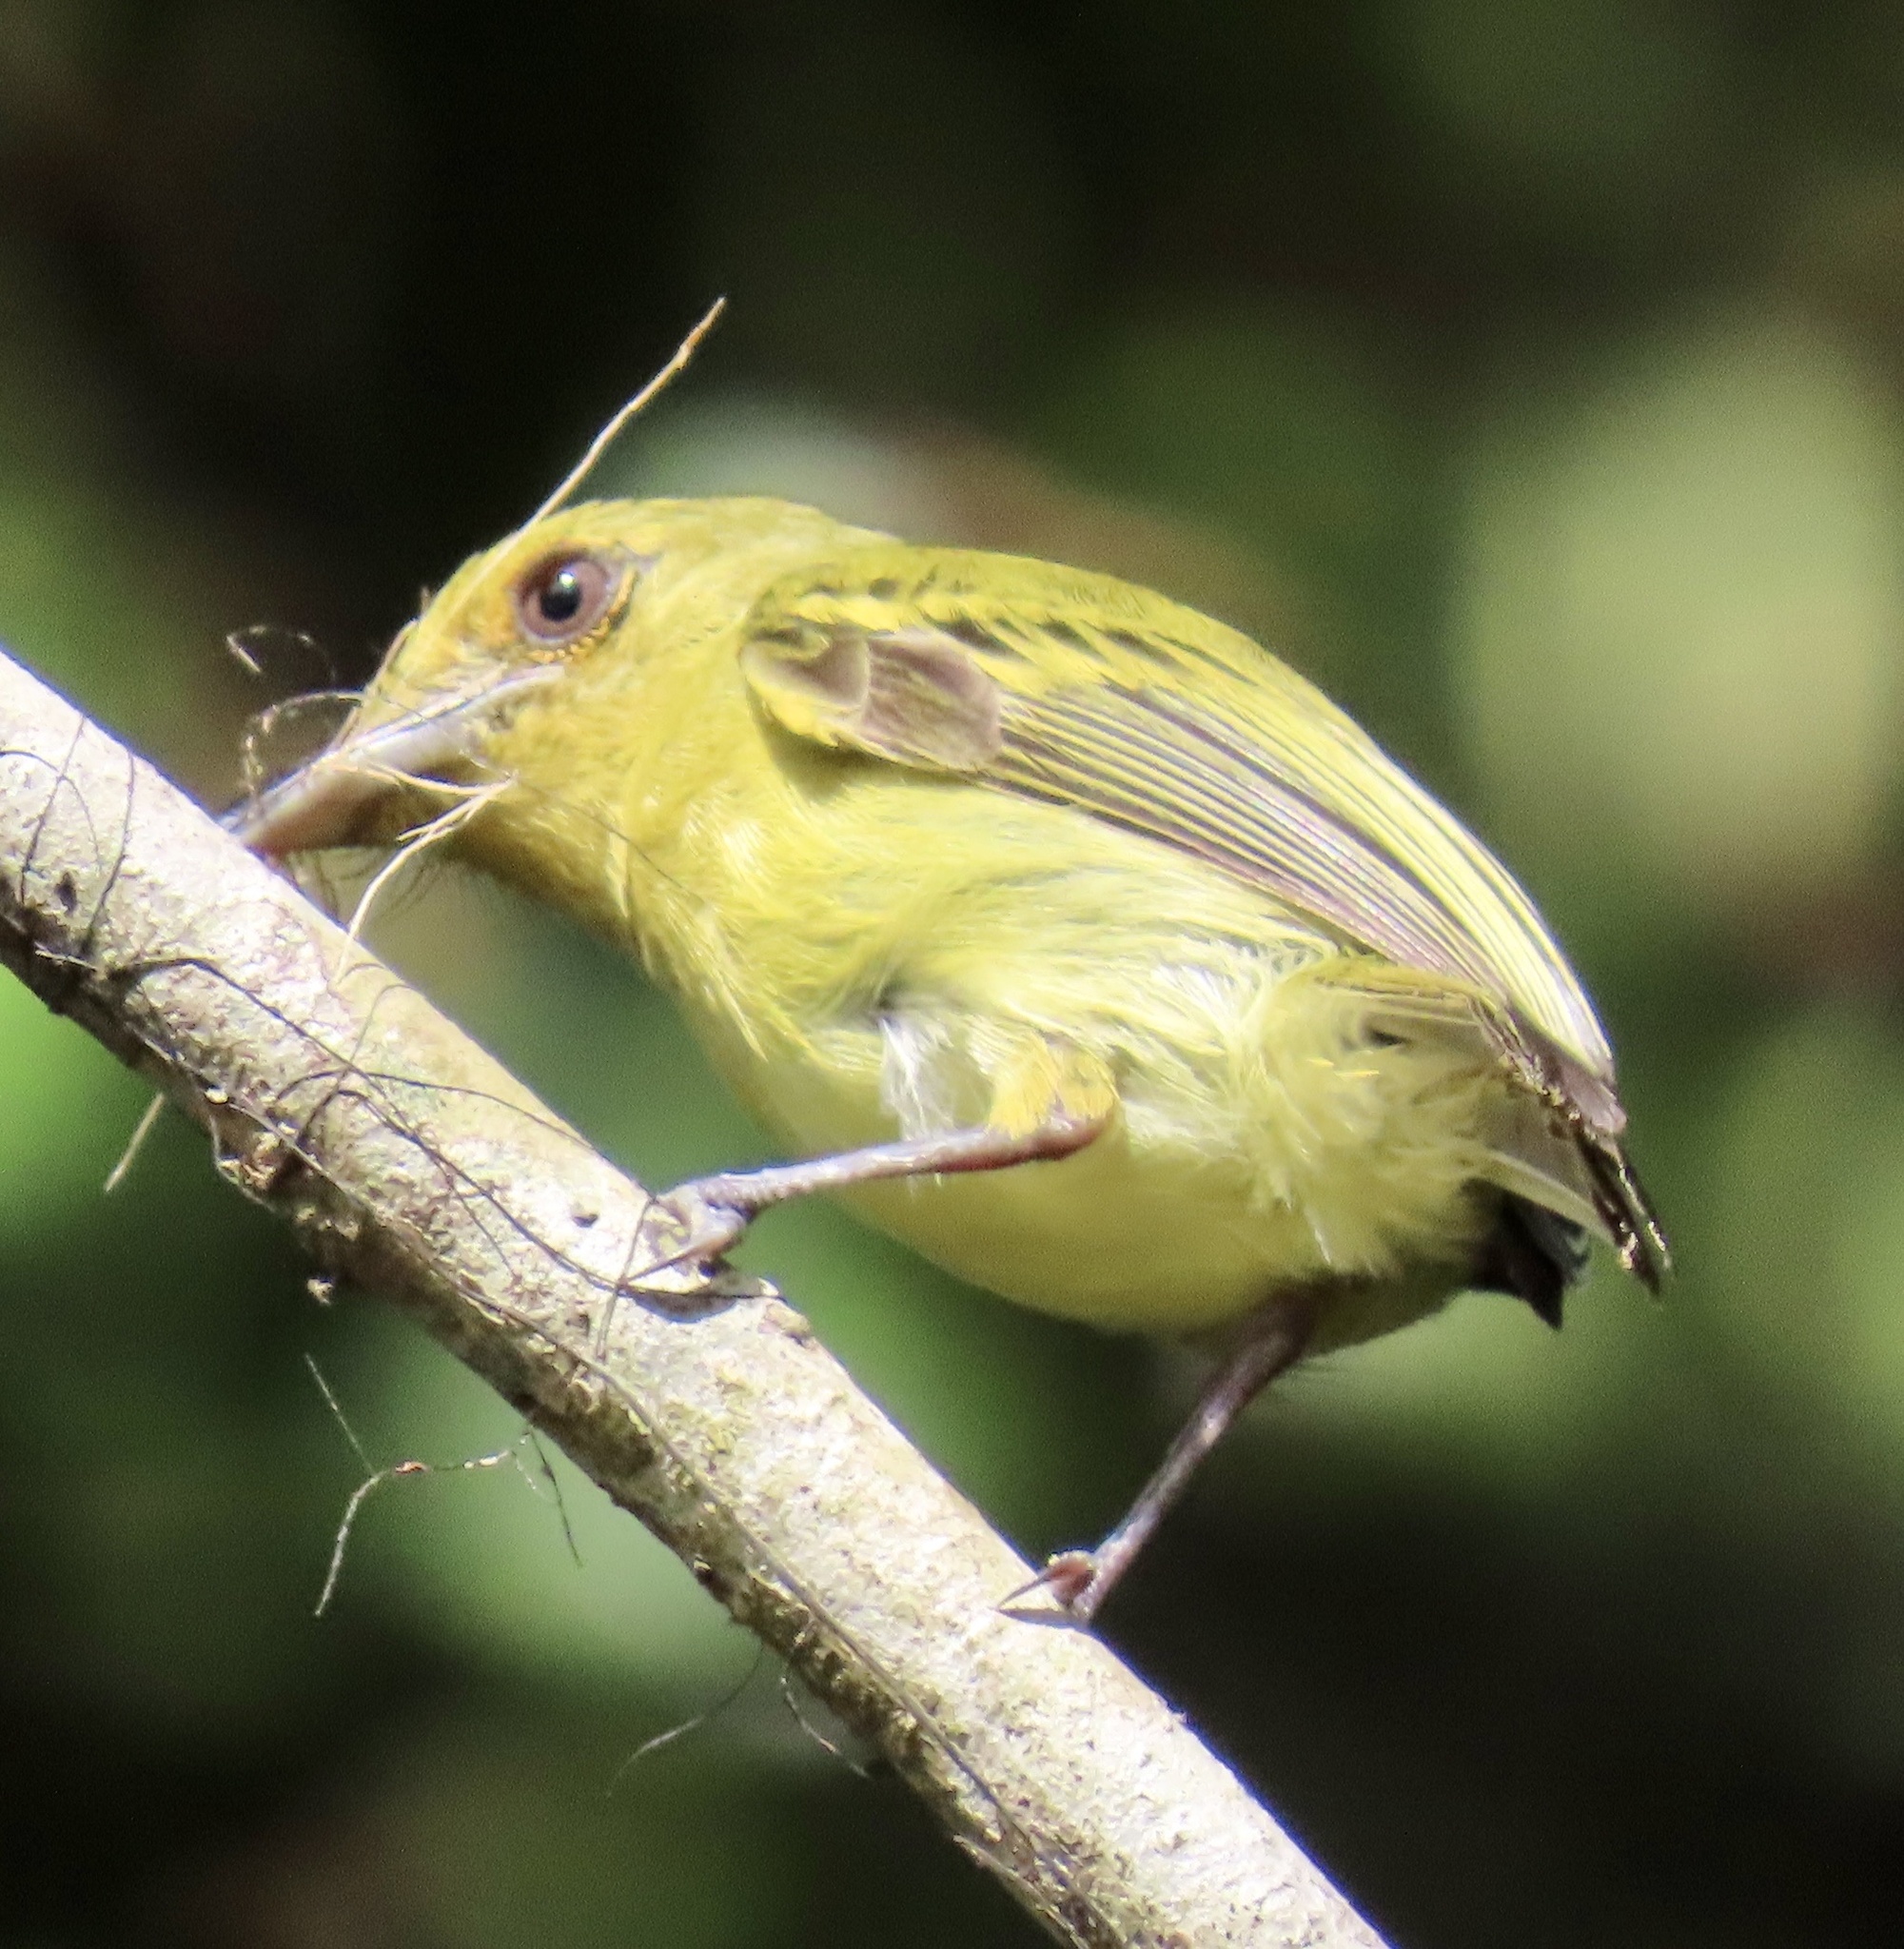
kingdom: Animalia
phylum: Chordata
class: Aves
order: Passeriformes
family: Tyrannidae
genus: Tolmomyias
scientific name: Tolmomyias flaviventris
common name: Ochre-lored flatbill
